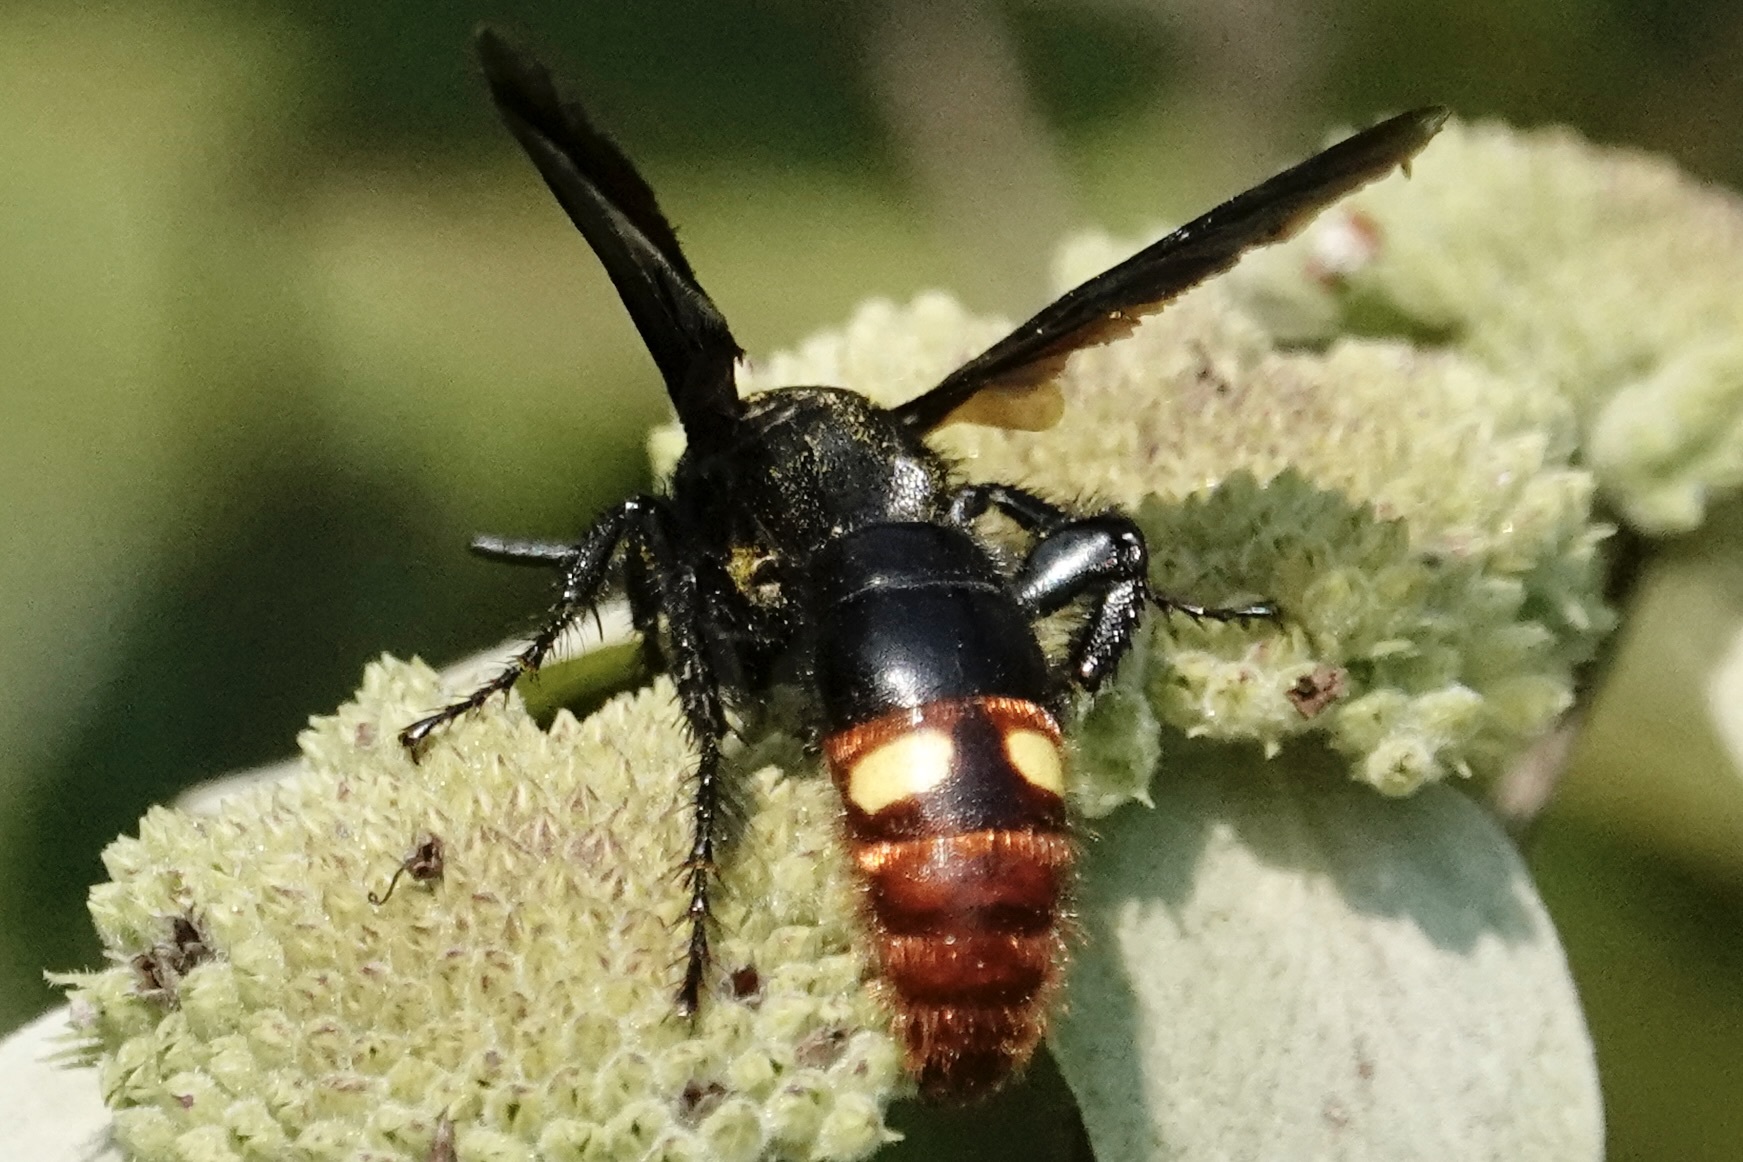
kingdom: Animalia
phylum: Arthropoda
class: Insecta
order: Hymenoptera
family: Scoliidae
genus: Scolia
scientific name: Scolia dubia
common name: Blue-winged scoliid wasp
